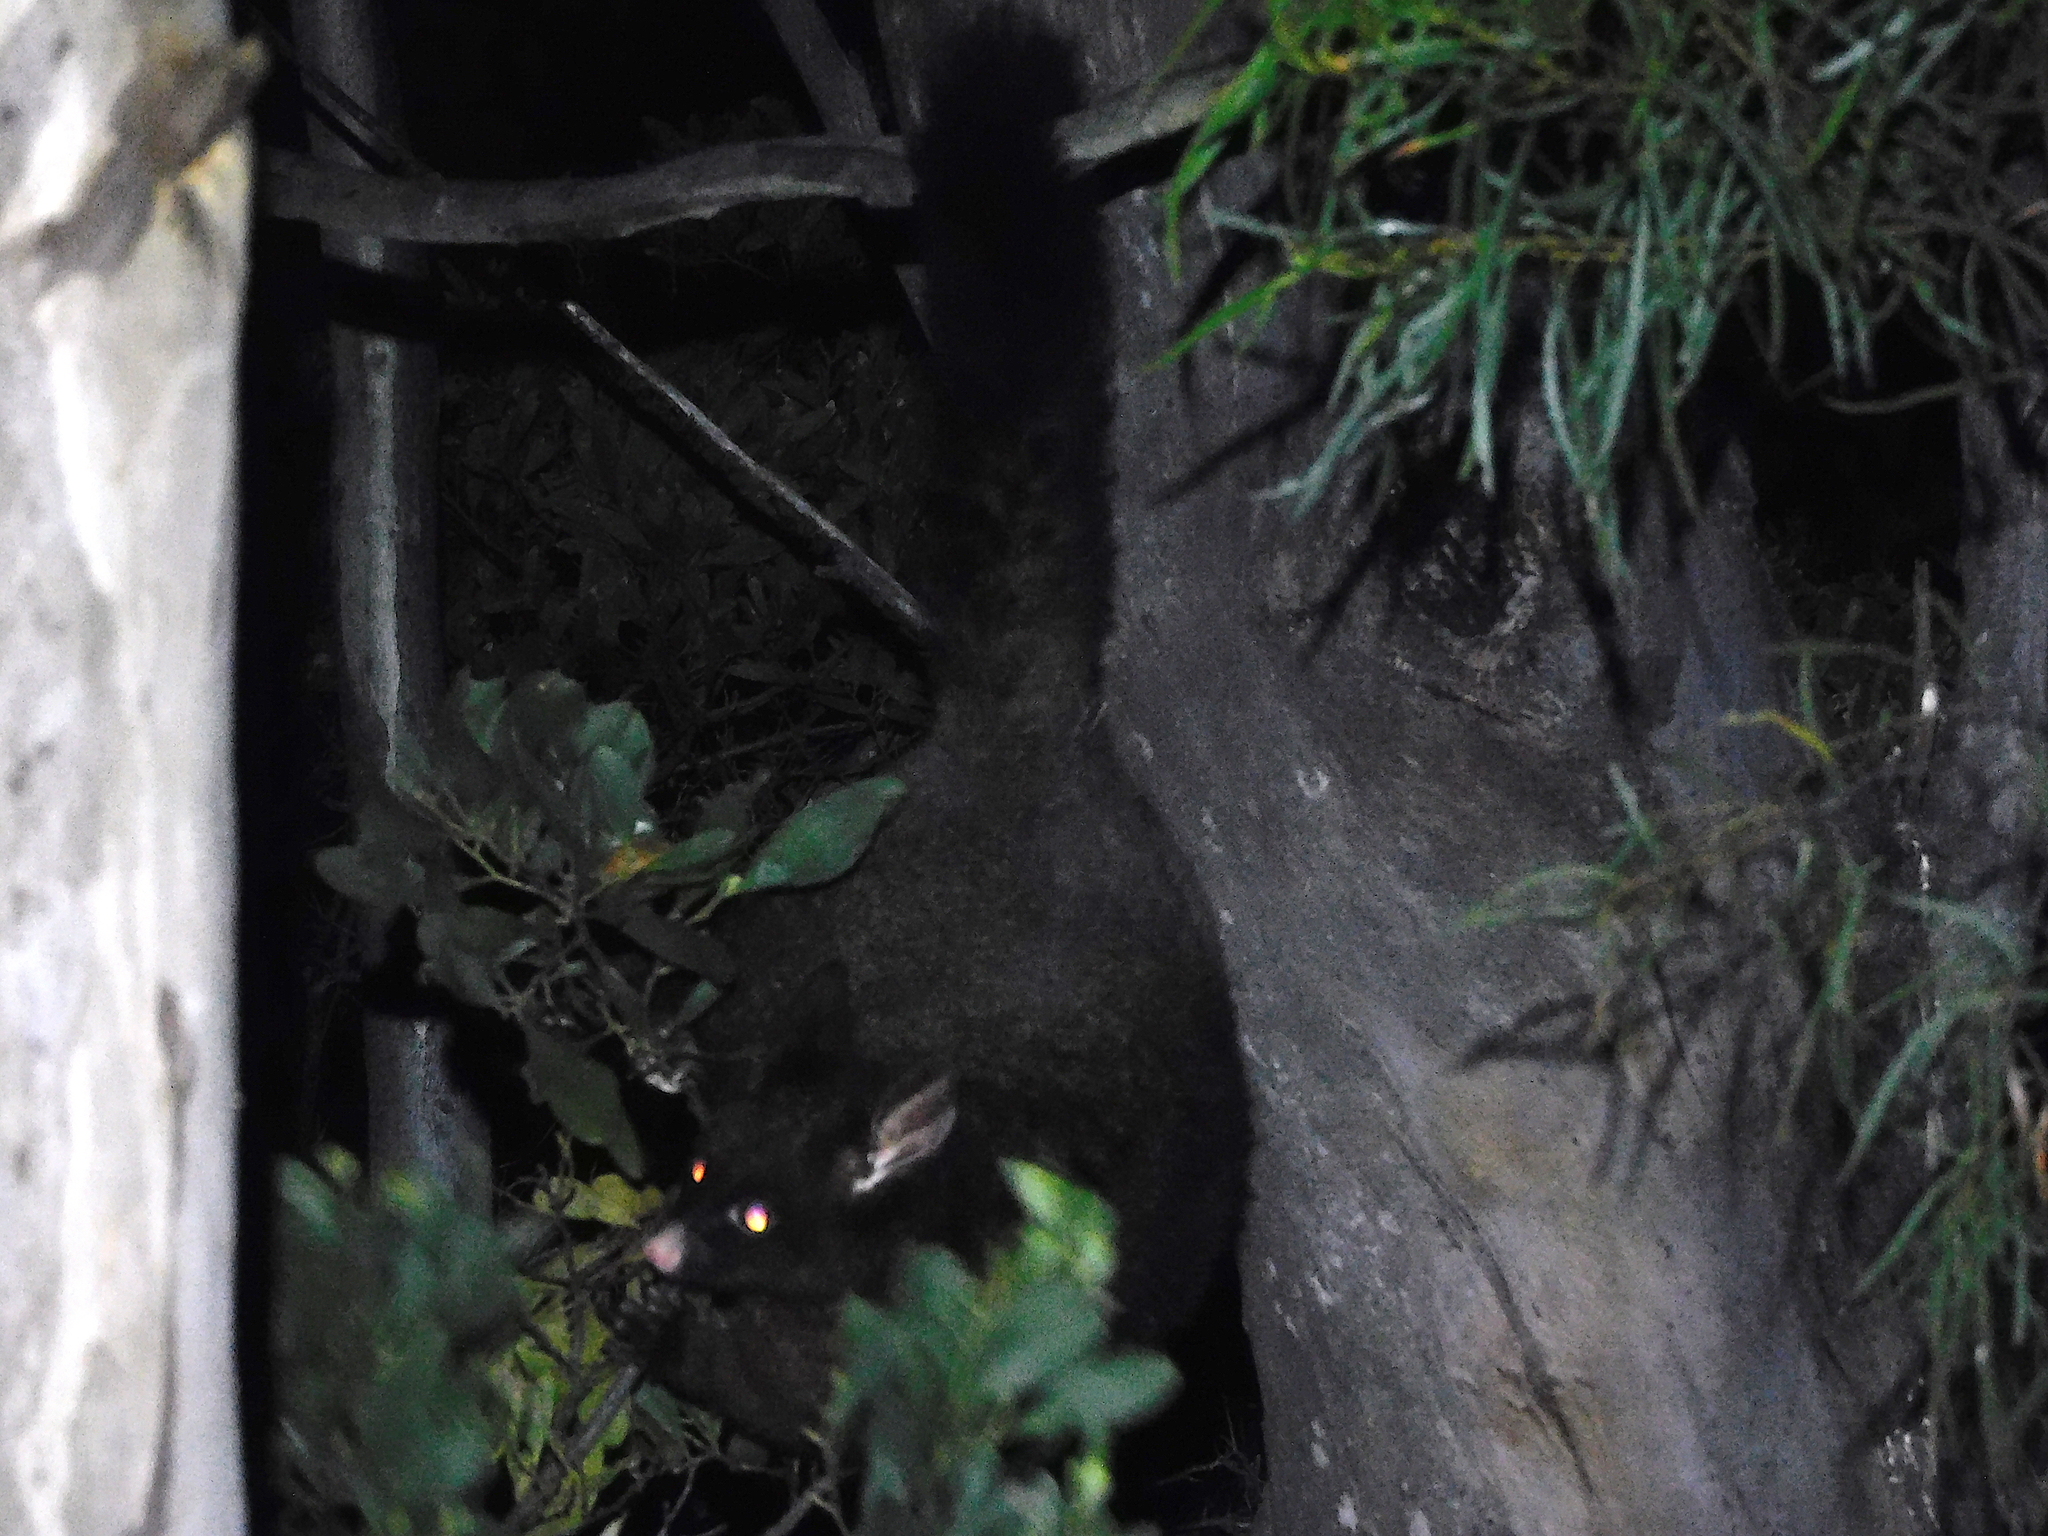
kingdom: Animalia
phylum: Chordata
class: Mammalia
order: Diprotodontia
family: Phalangeridae
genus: Trichosurus
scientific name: Trichosurus vulpecula
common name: Common brushtail
